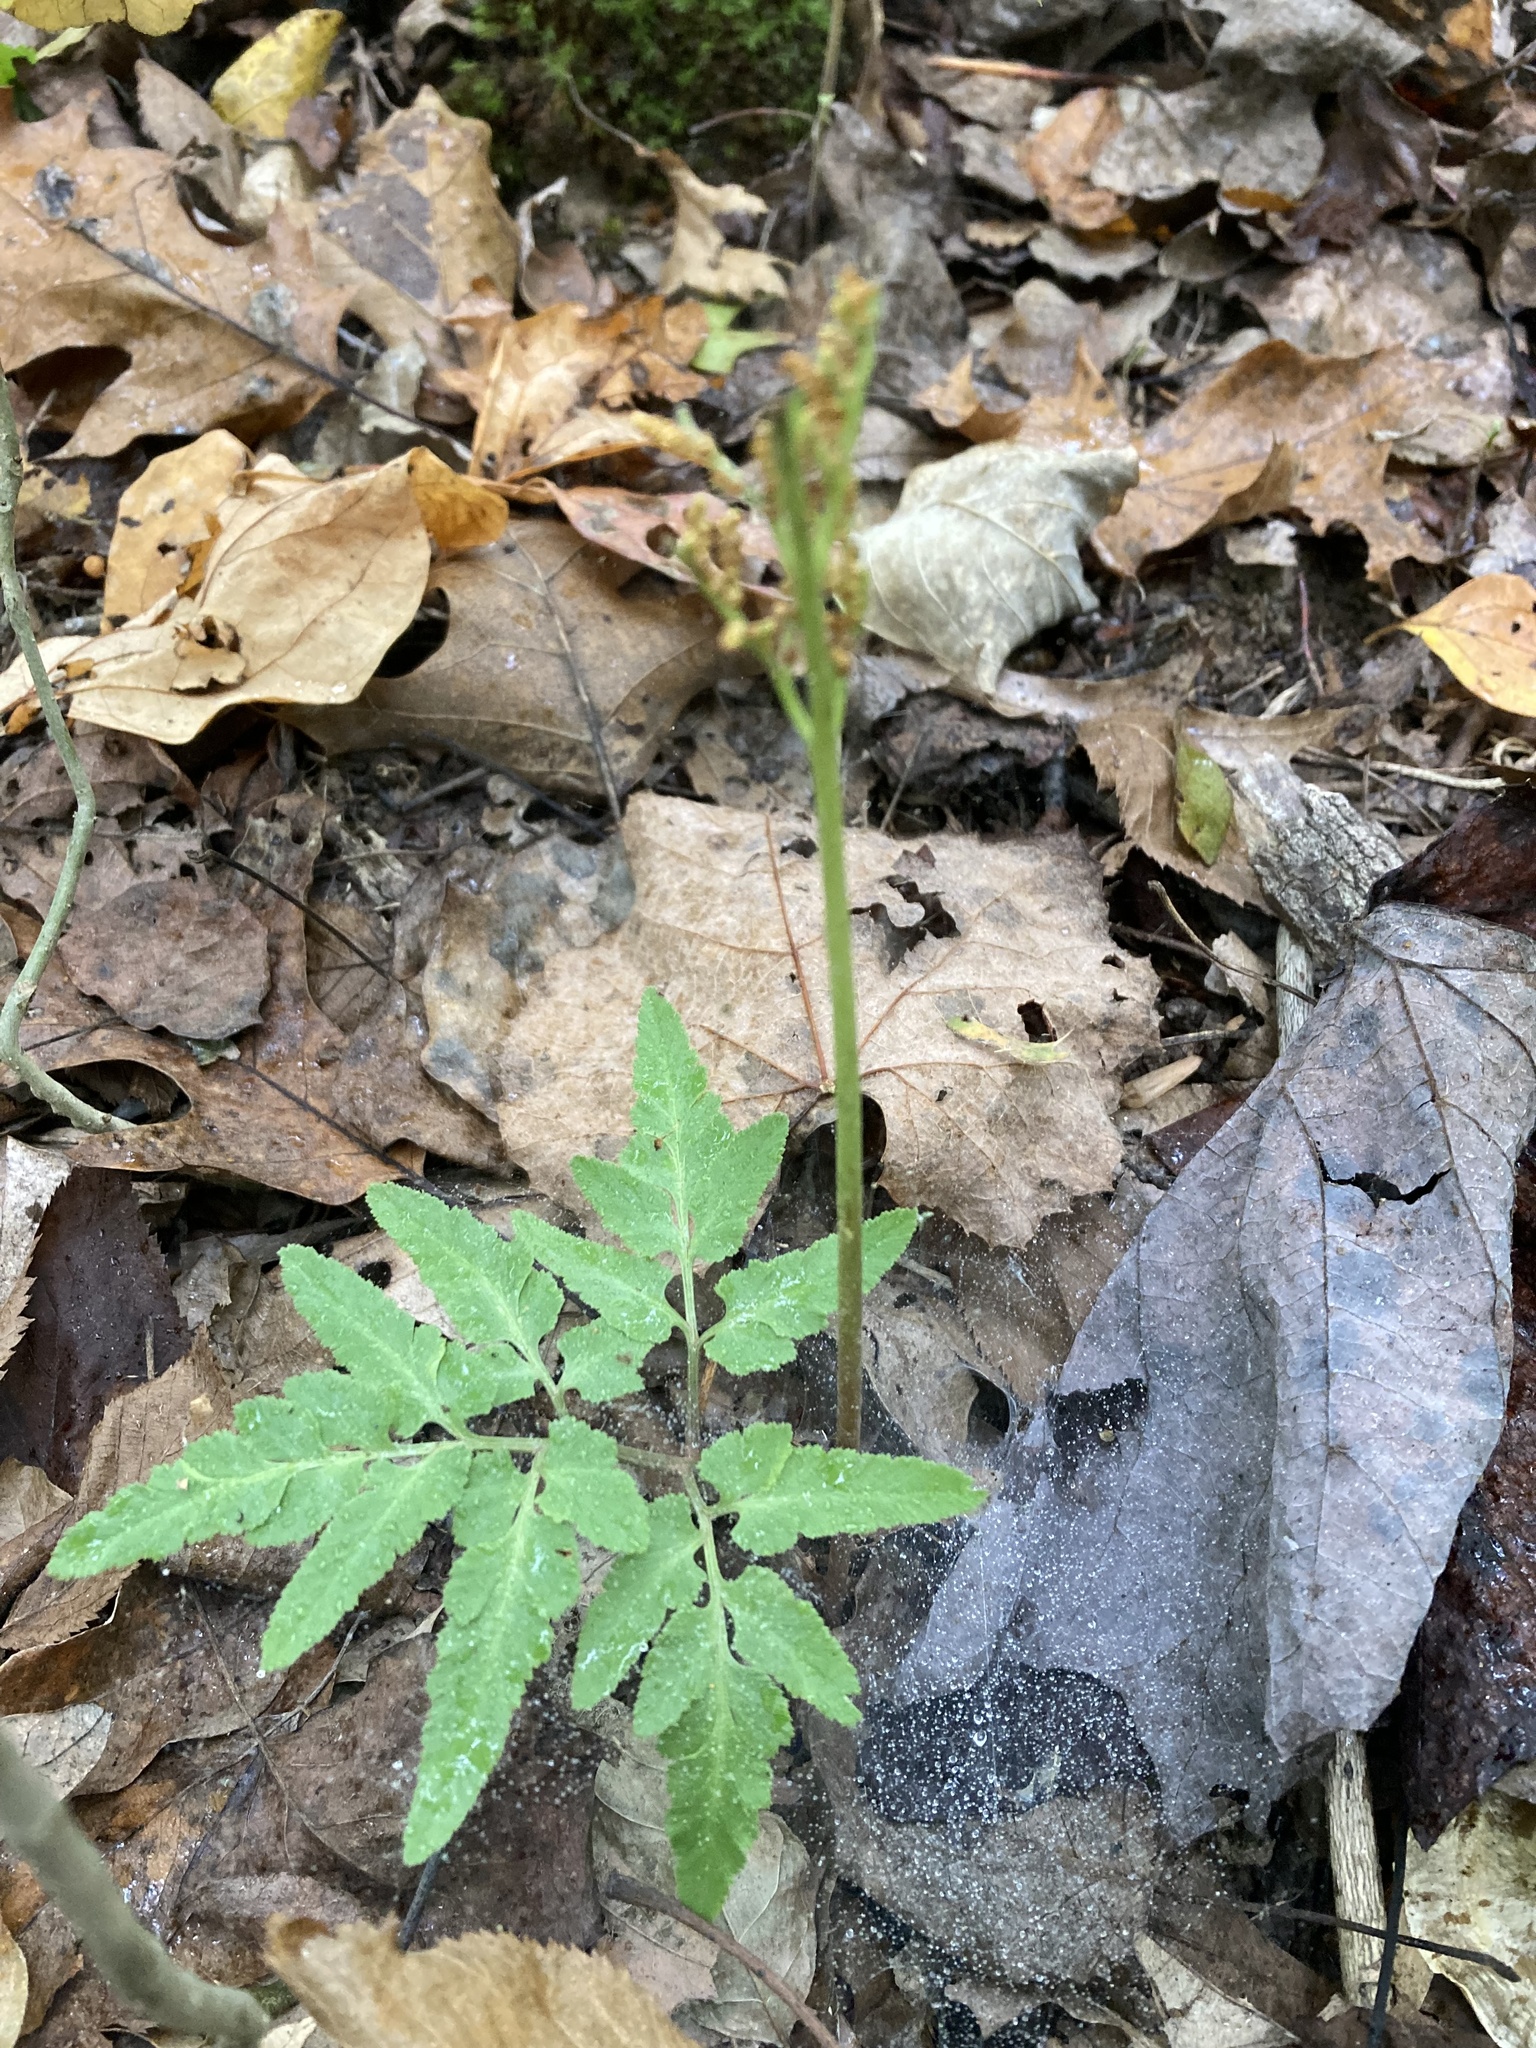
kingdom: Plantae
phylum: Tracheophyta
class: Polypodiopsida
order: Ophioglossales
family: Ophioglossaceae
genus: Sceptridium
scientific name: Sceptridium dissectum
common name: Cut-leaved grapefern
